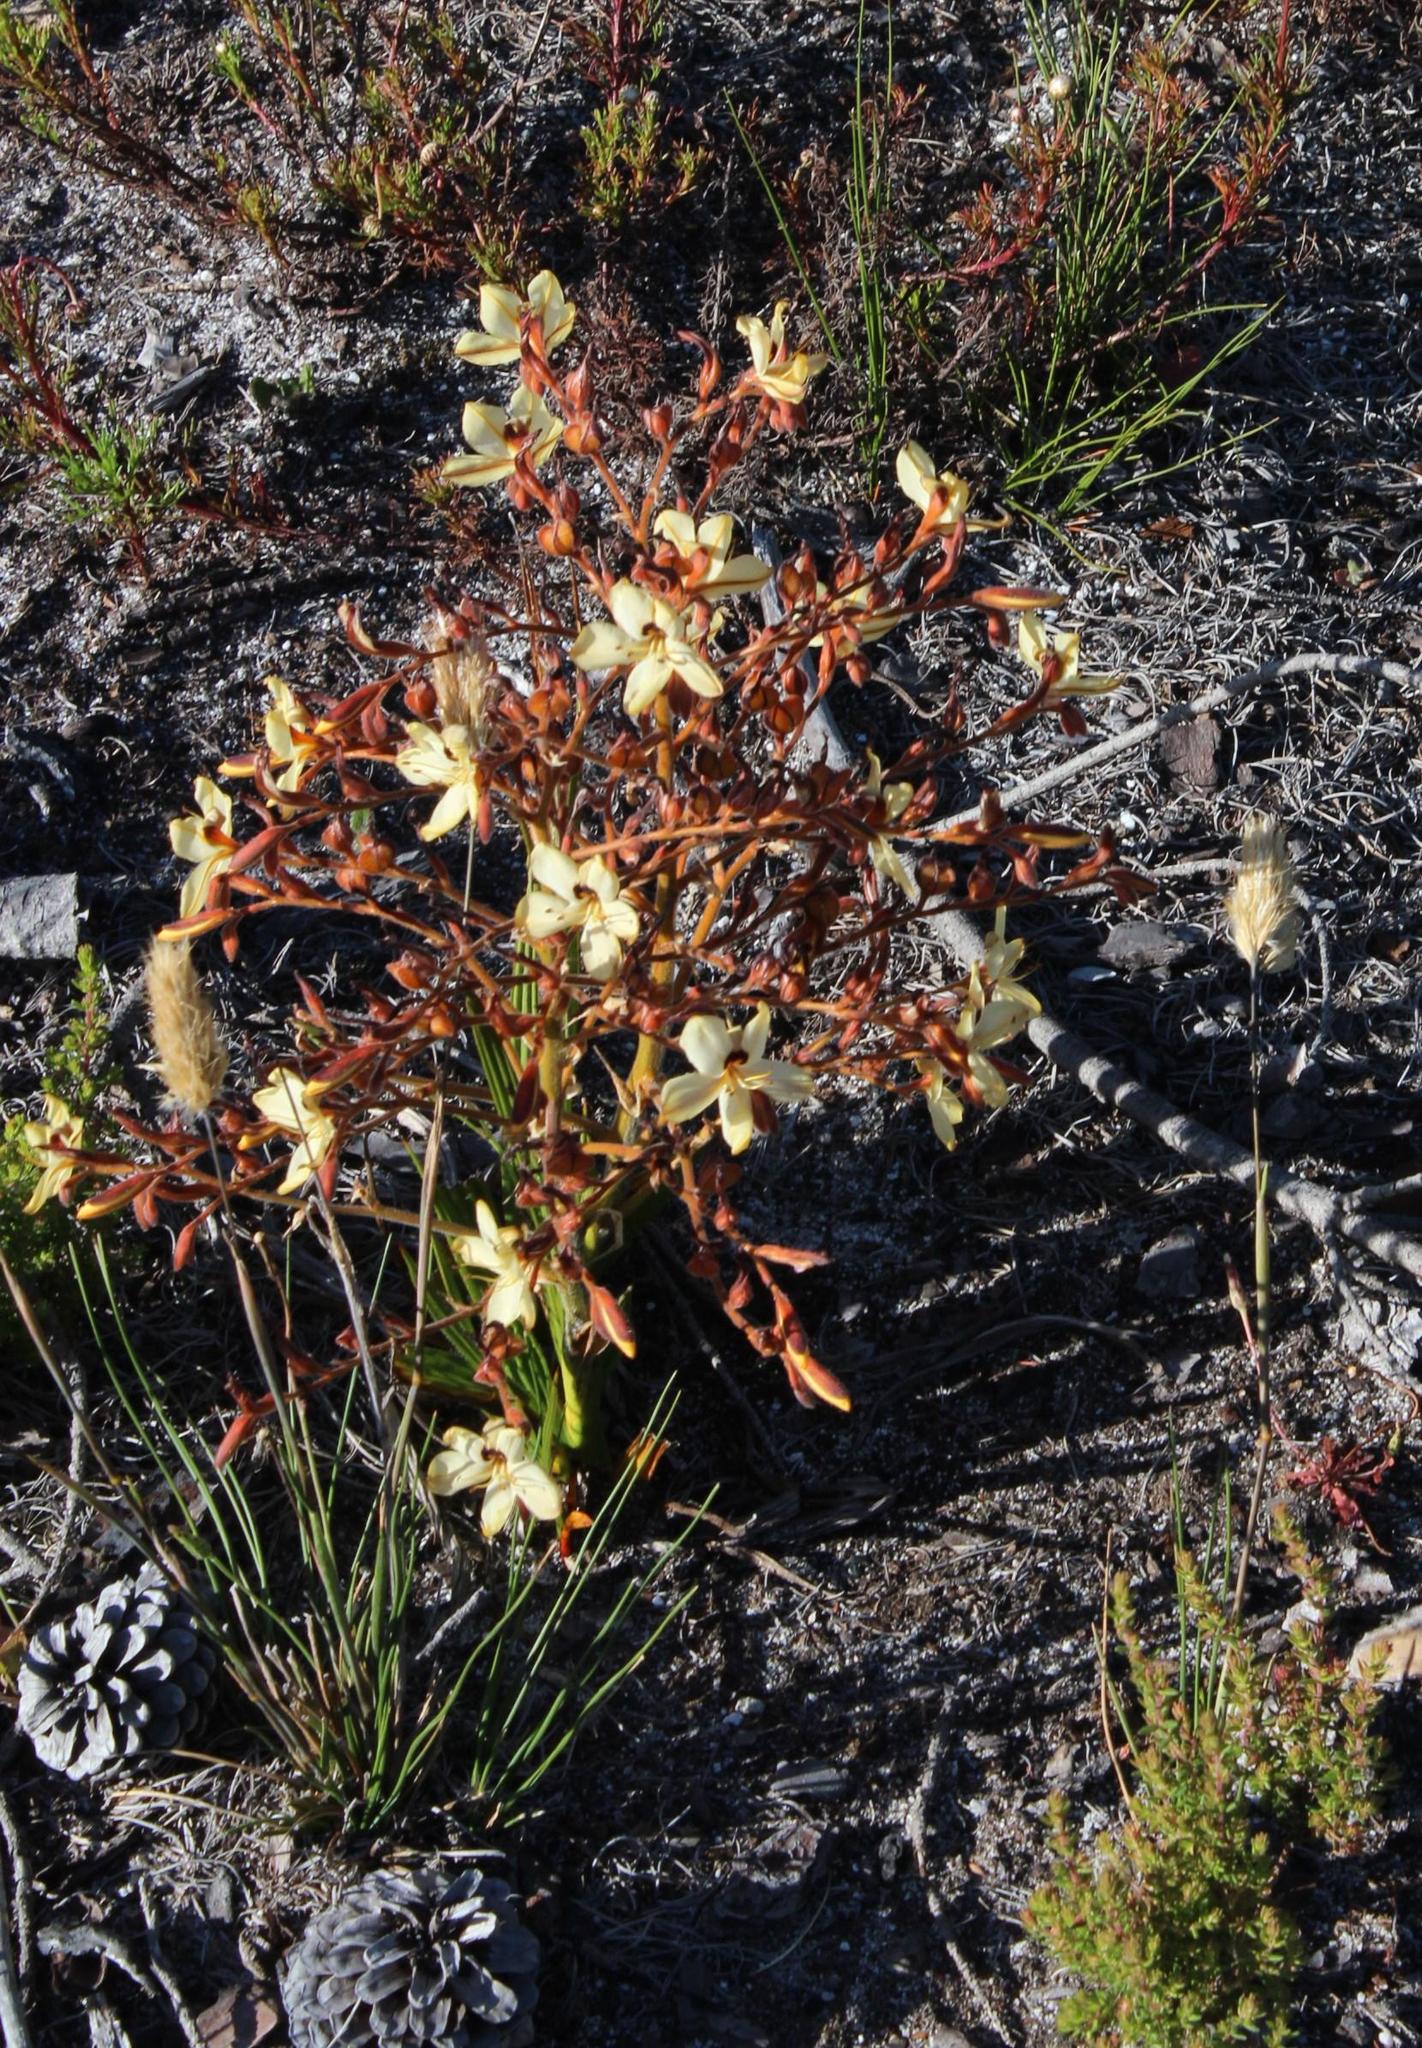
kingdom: Plantae
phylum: Tracheophyta
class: Liliopsida
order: Commelinales
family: Haemodoraceae
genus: Wachendorfia
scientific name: Wachendorfia paniculata
